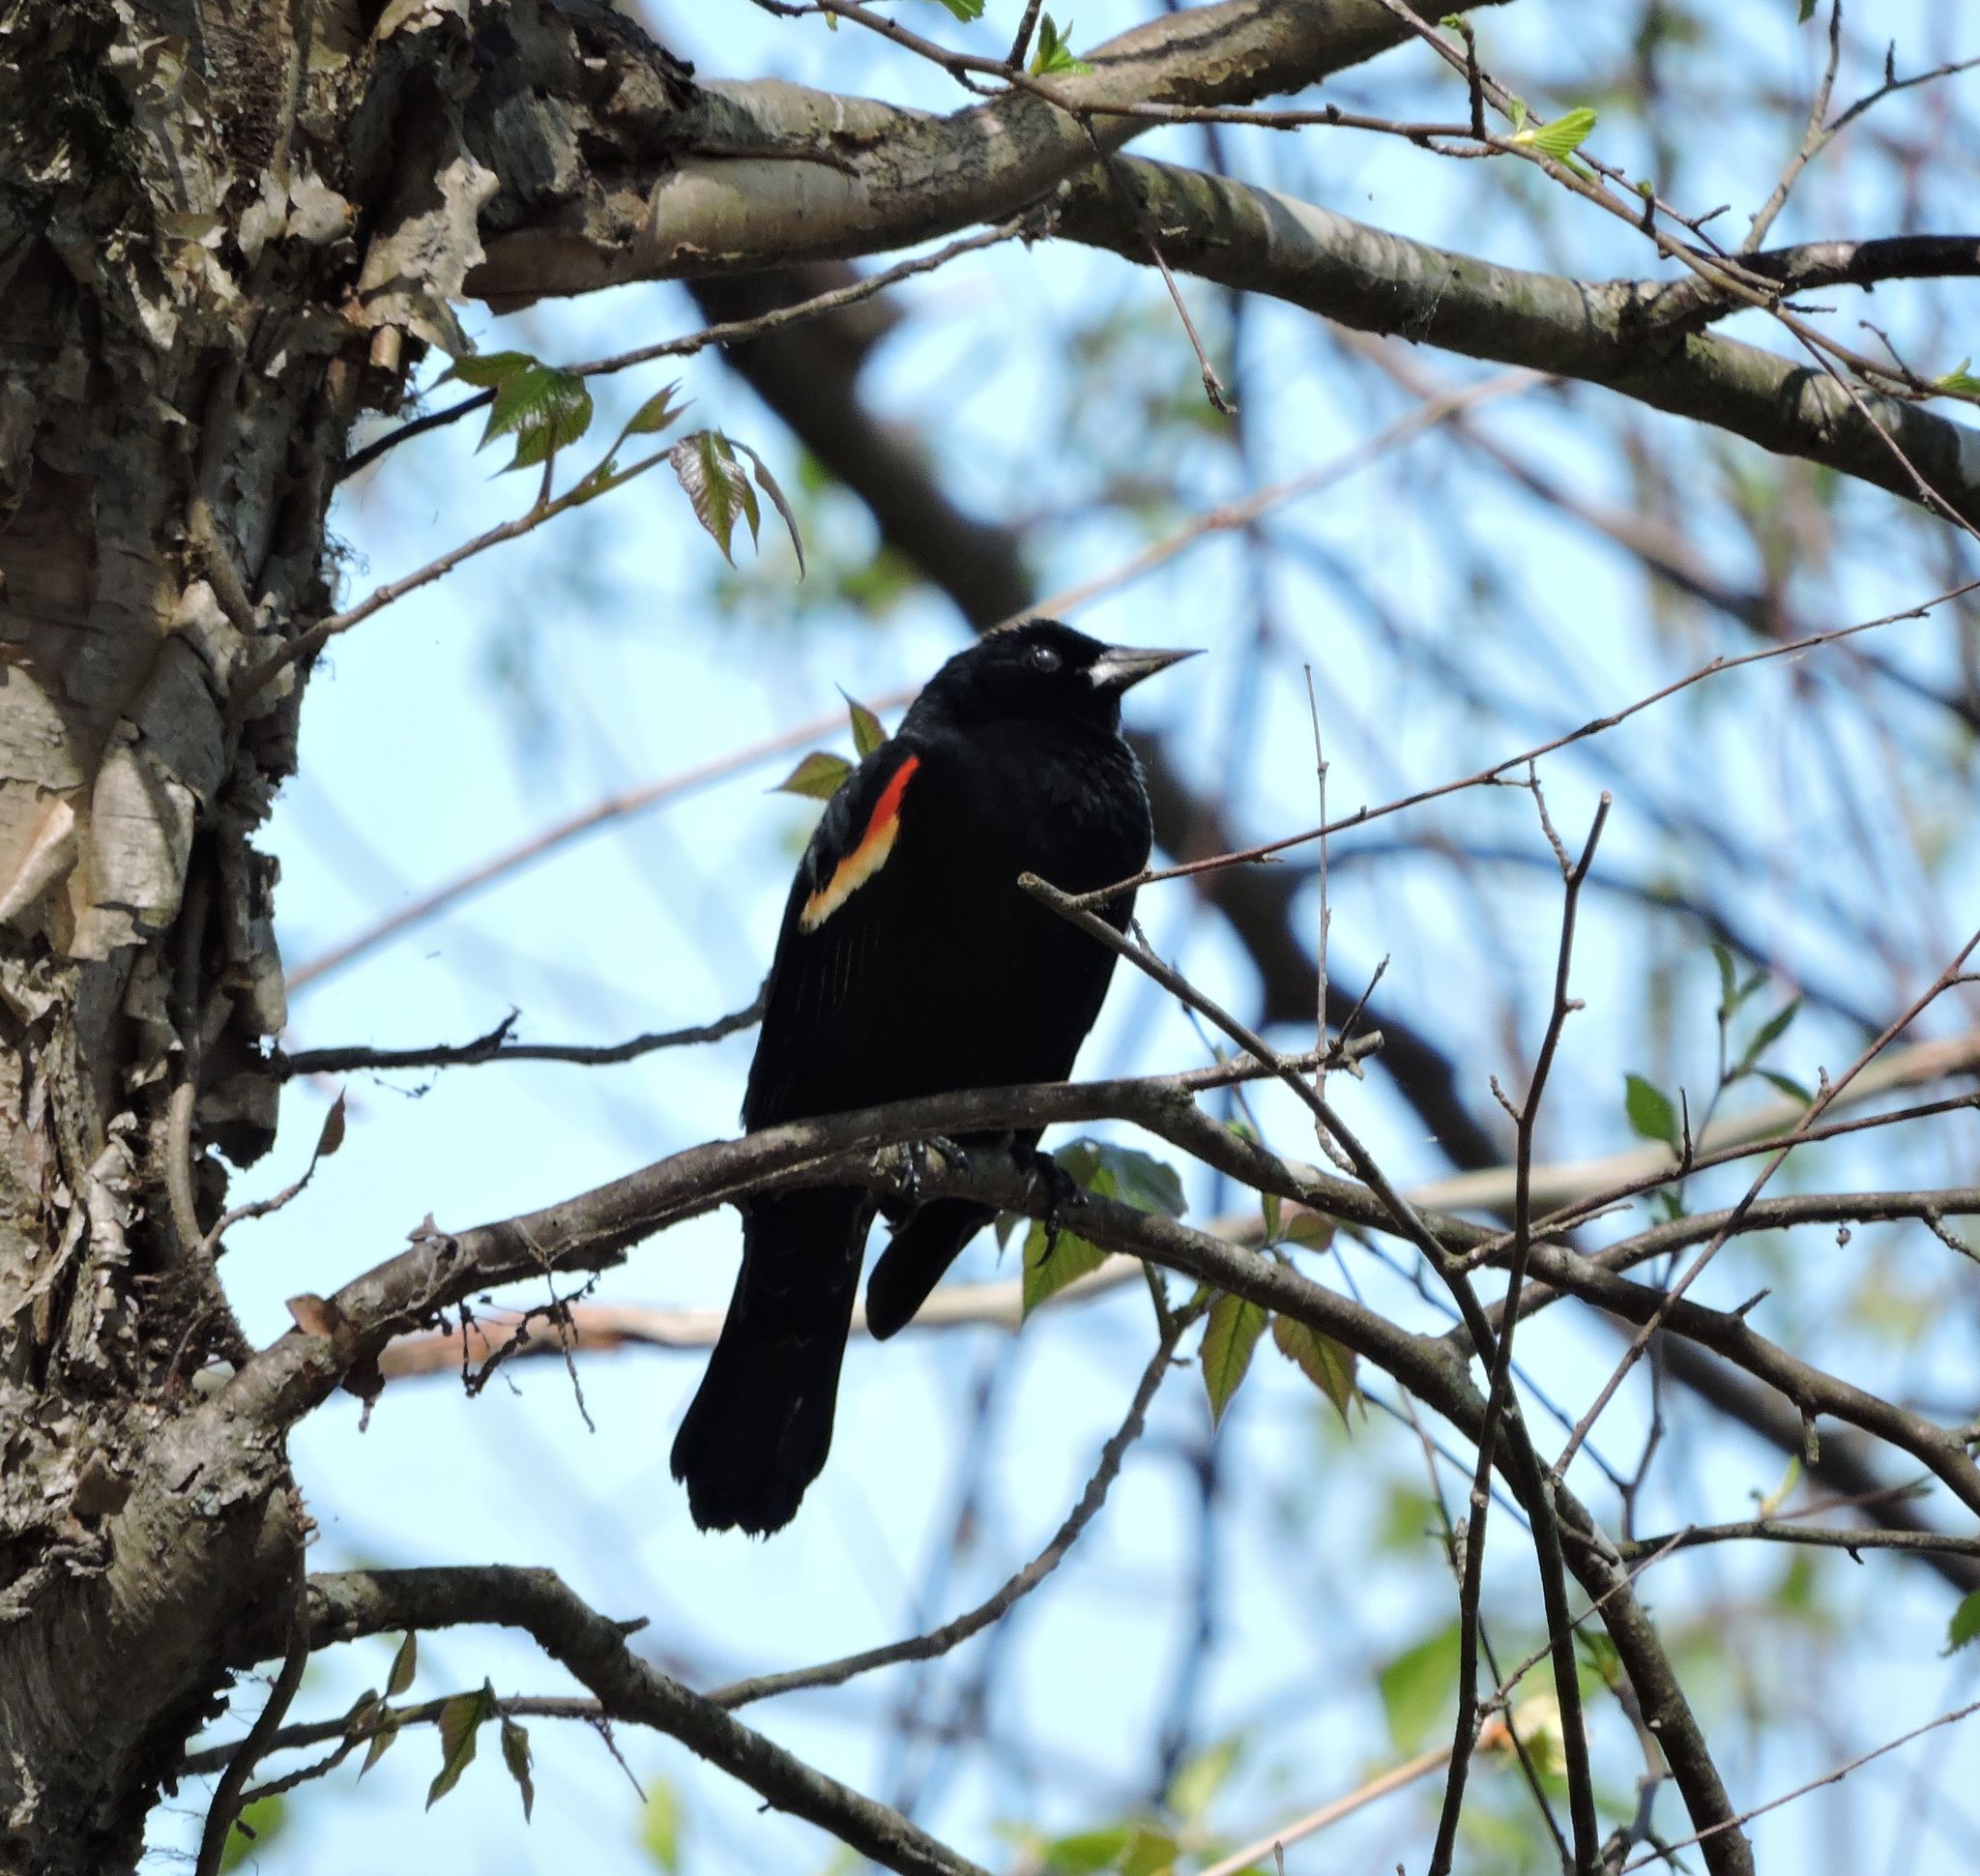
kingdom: Animalia
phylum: Chordata
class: Aves
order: Passeriformes
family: Icteridae
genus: Agelaius
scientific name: Agelaius phoeniceus
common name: Red-winged blackbird
